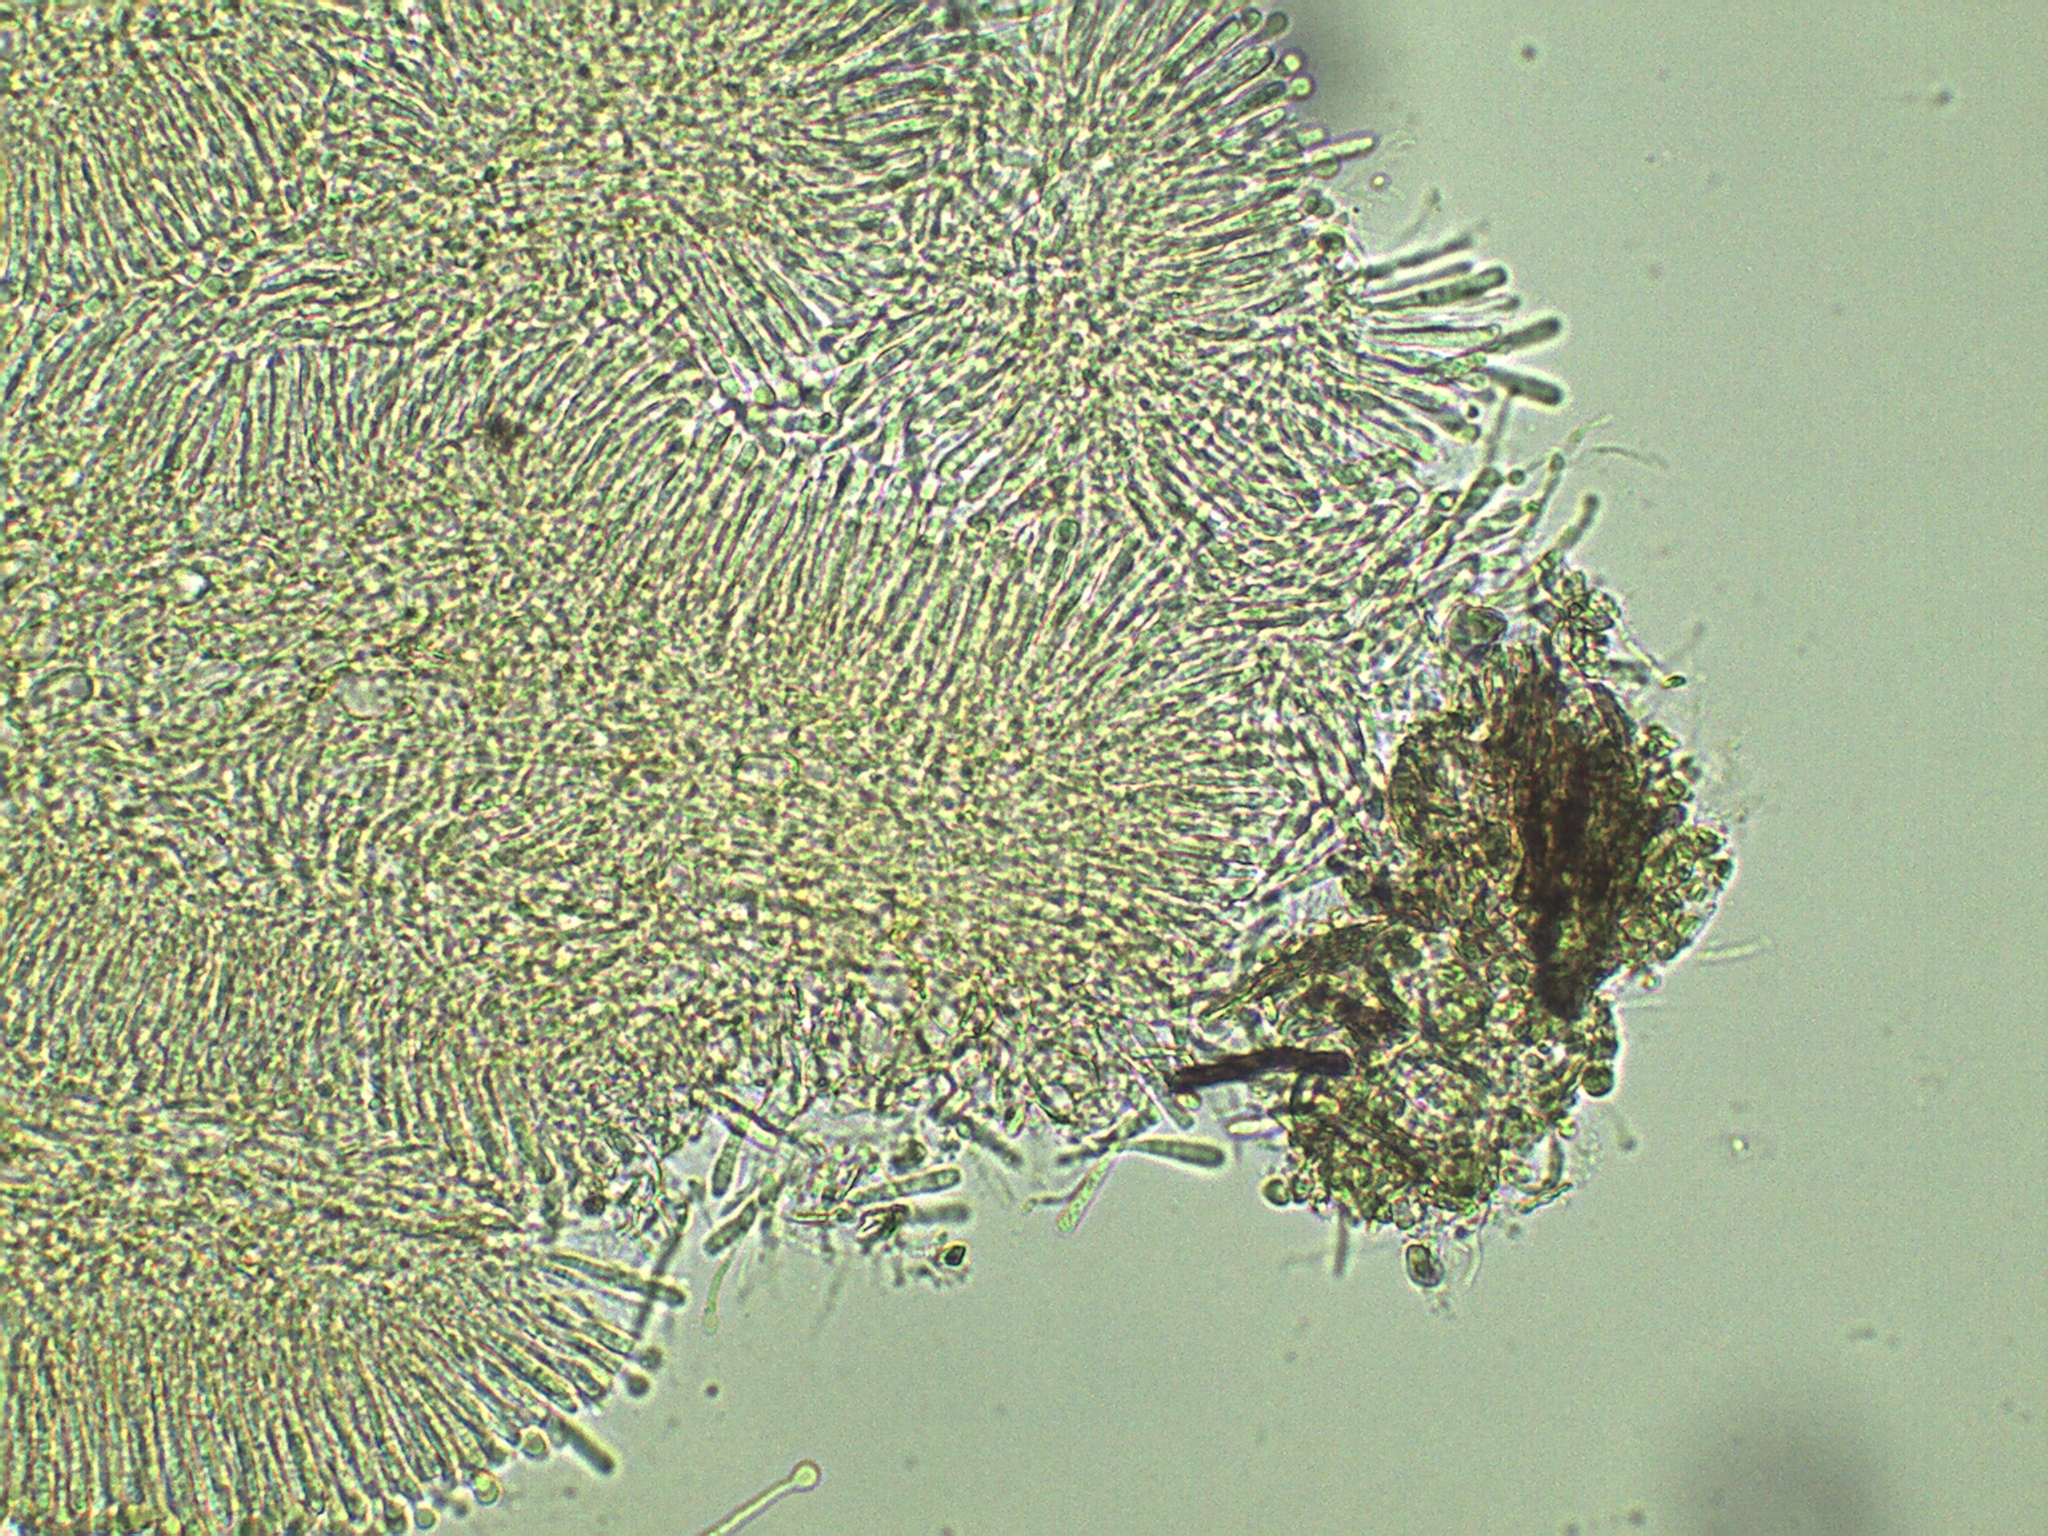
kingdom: Fungi
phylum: Ascomycota
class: Orbiliomycetes
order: Orbiliales
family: Orbiliaceae
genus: Orbilia
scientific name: Orbilia xanthostigma
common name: Common glasscup
